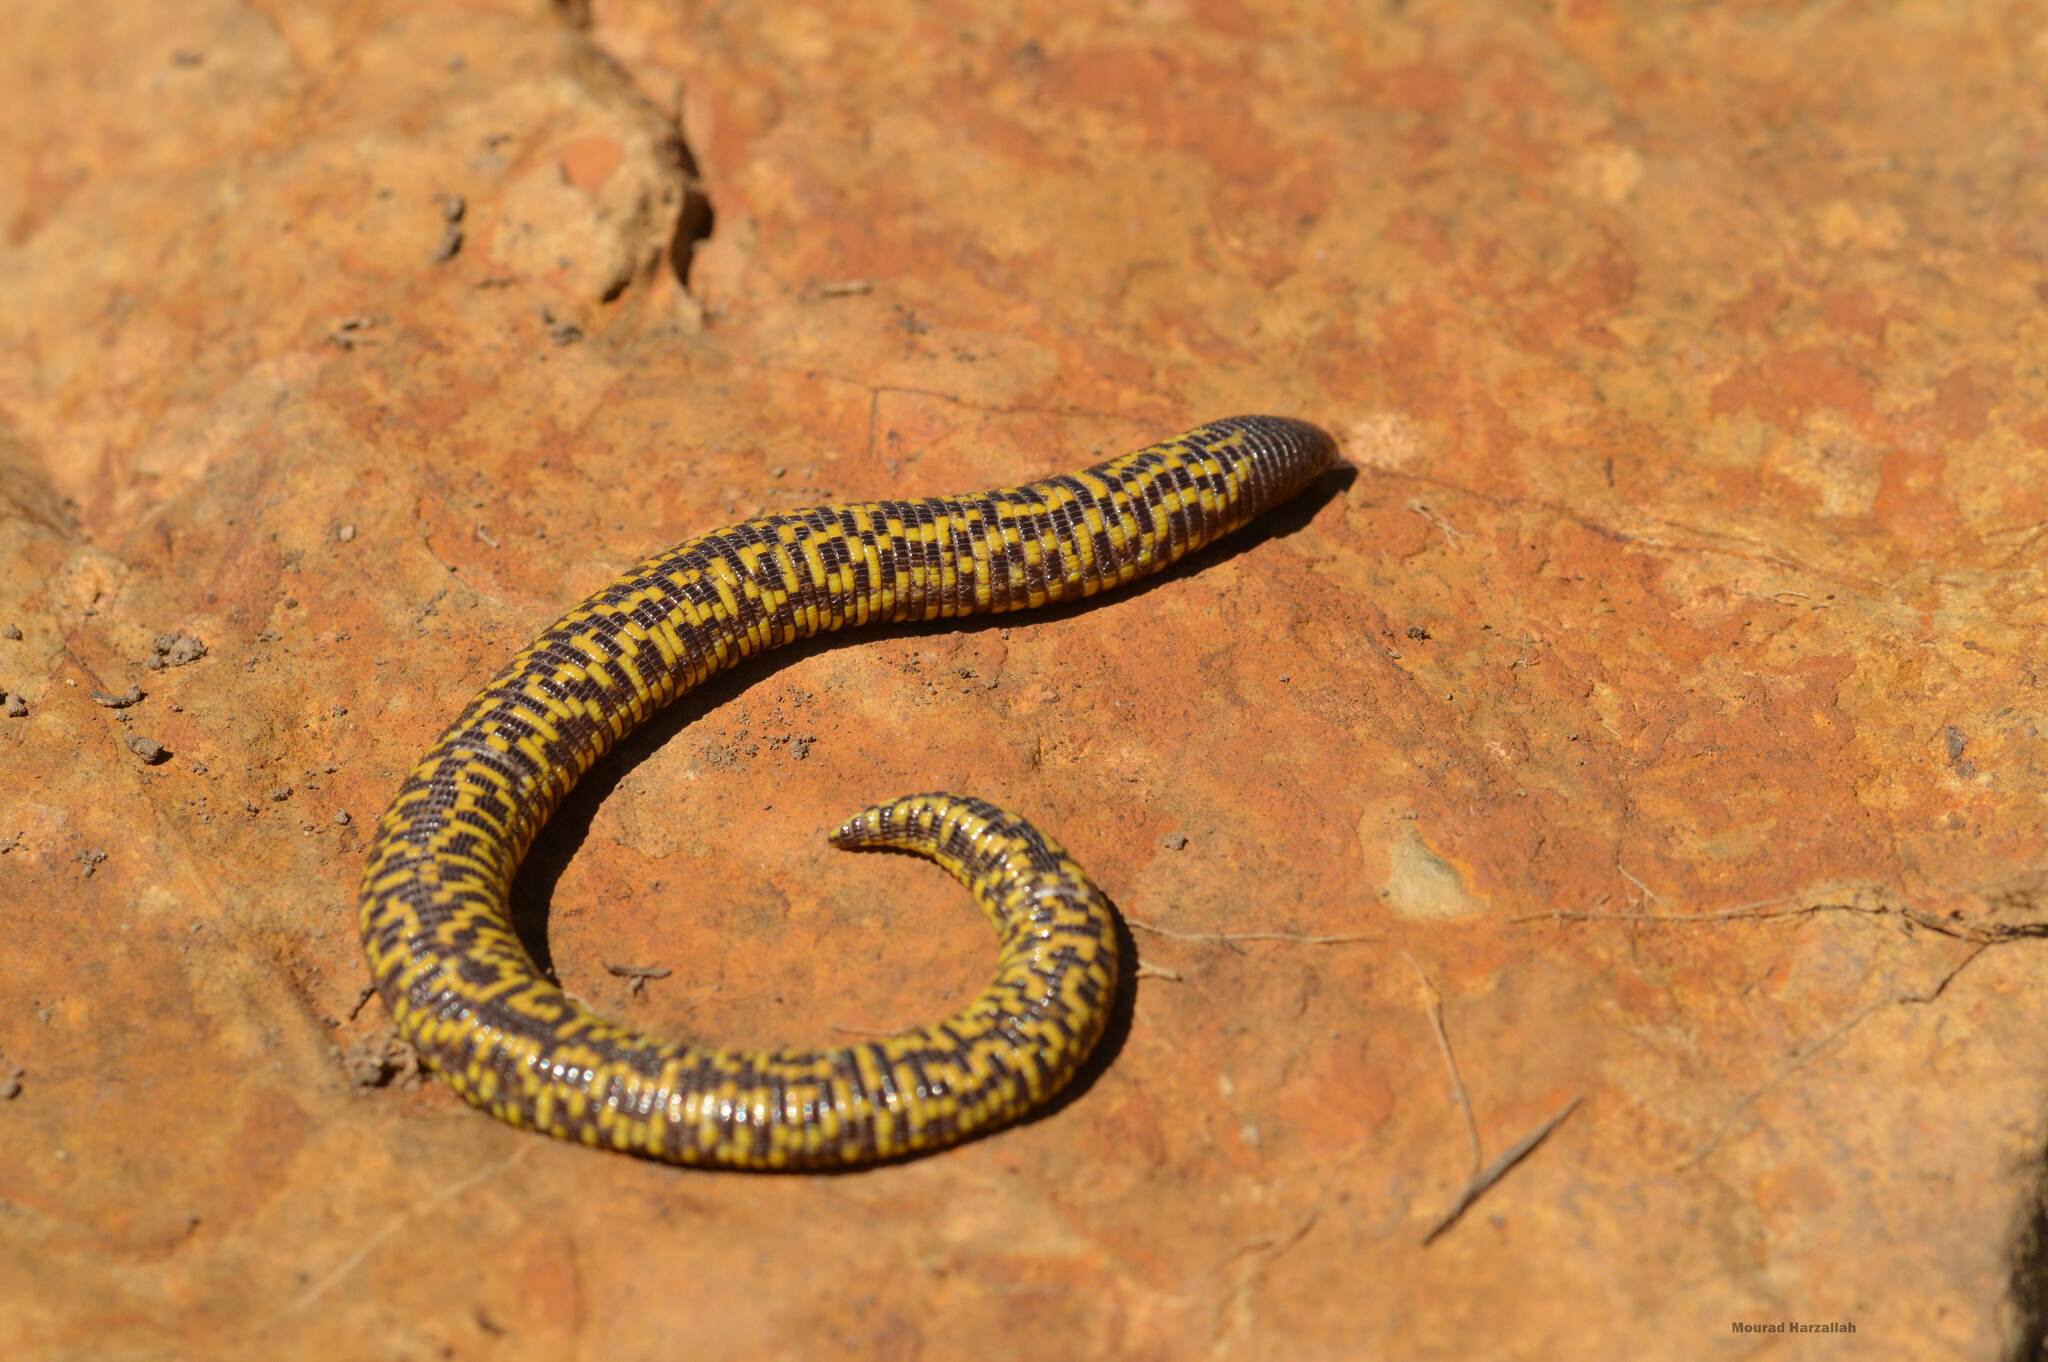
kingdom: Animalia
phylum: Chordata
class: Squamata
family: Trogonophidae
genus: Trogonophis
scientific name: Trogonophis wiegmanni
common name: Checkerboard worm lizard
